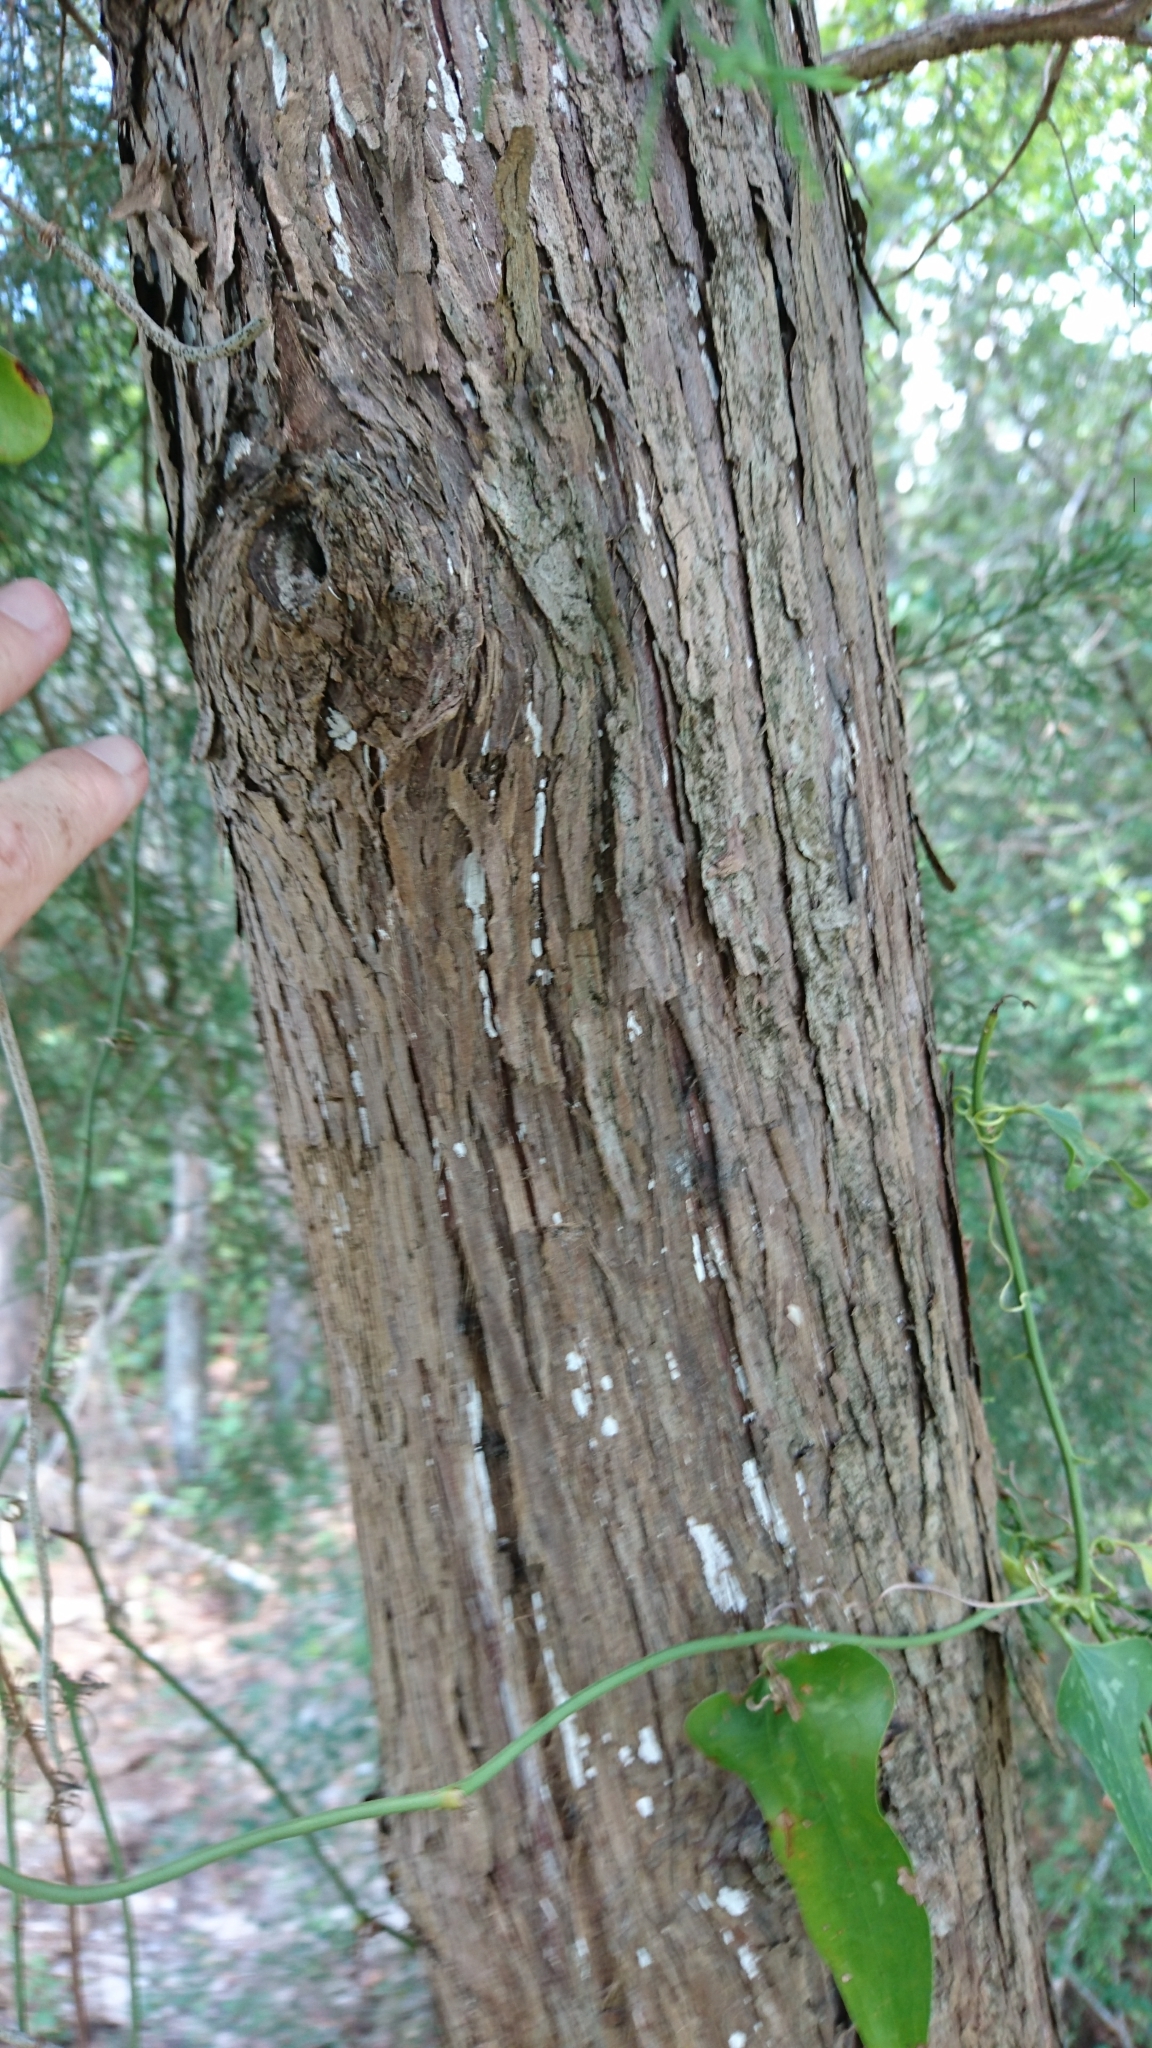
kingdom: Plantae
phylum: Tracheophyta
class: Pinopsida
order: Pinales
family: Cupressaceae
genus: Juniperus
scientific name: Juniperus virginiana
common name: Red juniper
